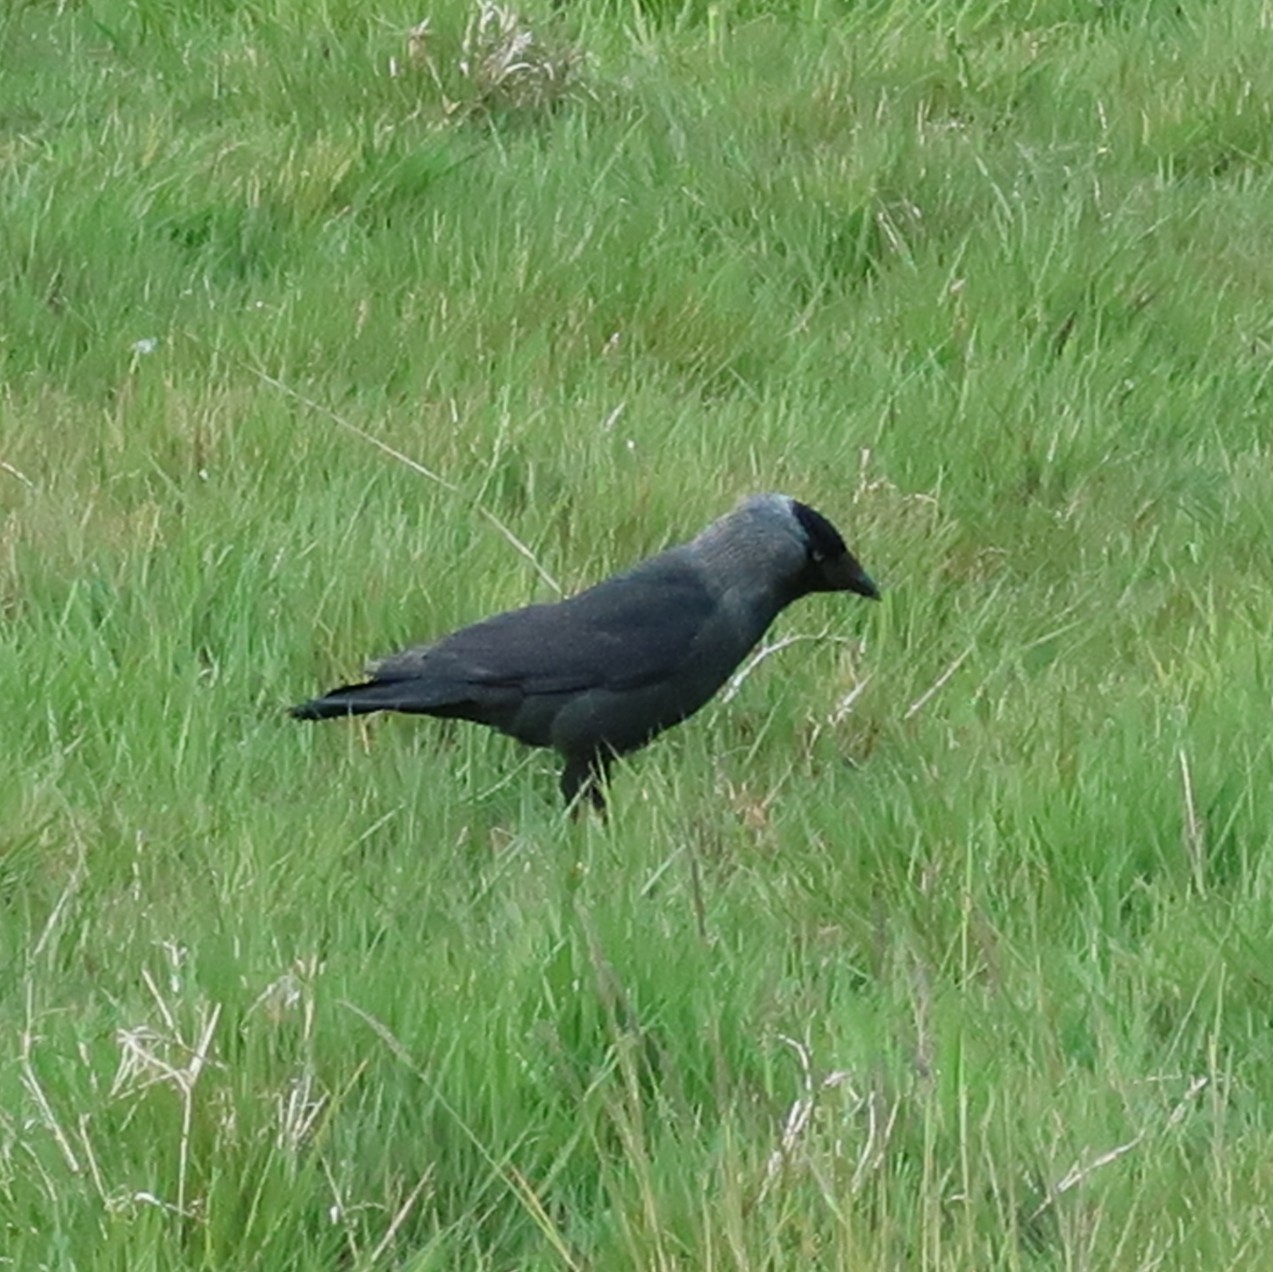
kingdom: Animalia
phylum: Chordata
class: Aves
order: Passeriformes
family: Corvidae
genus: Coloeus
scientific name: Coloeus monedula
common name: Western jackdaw
